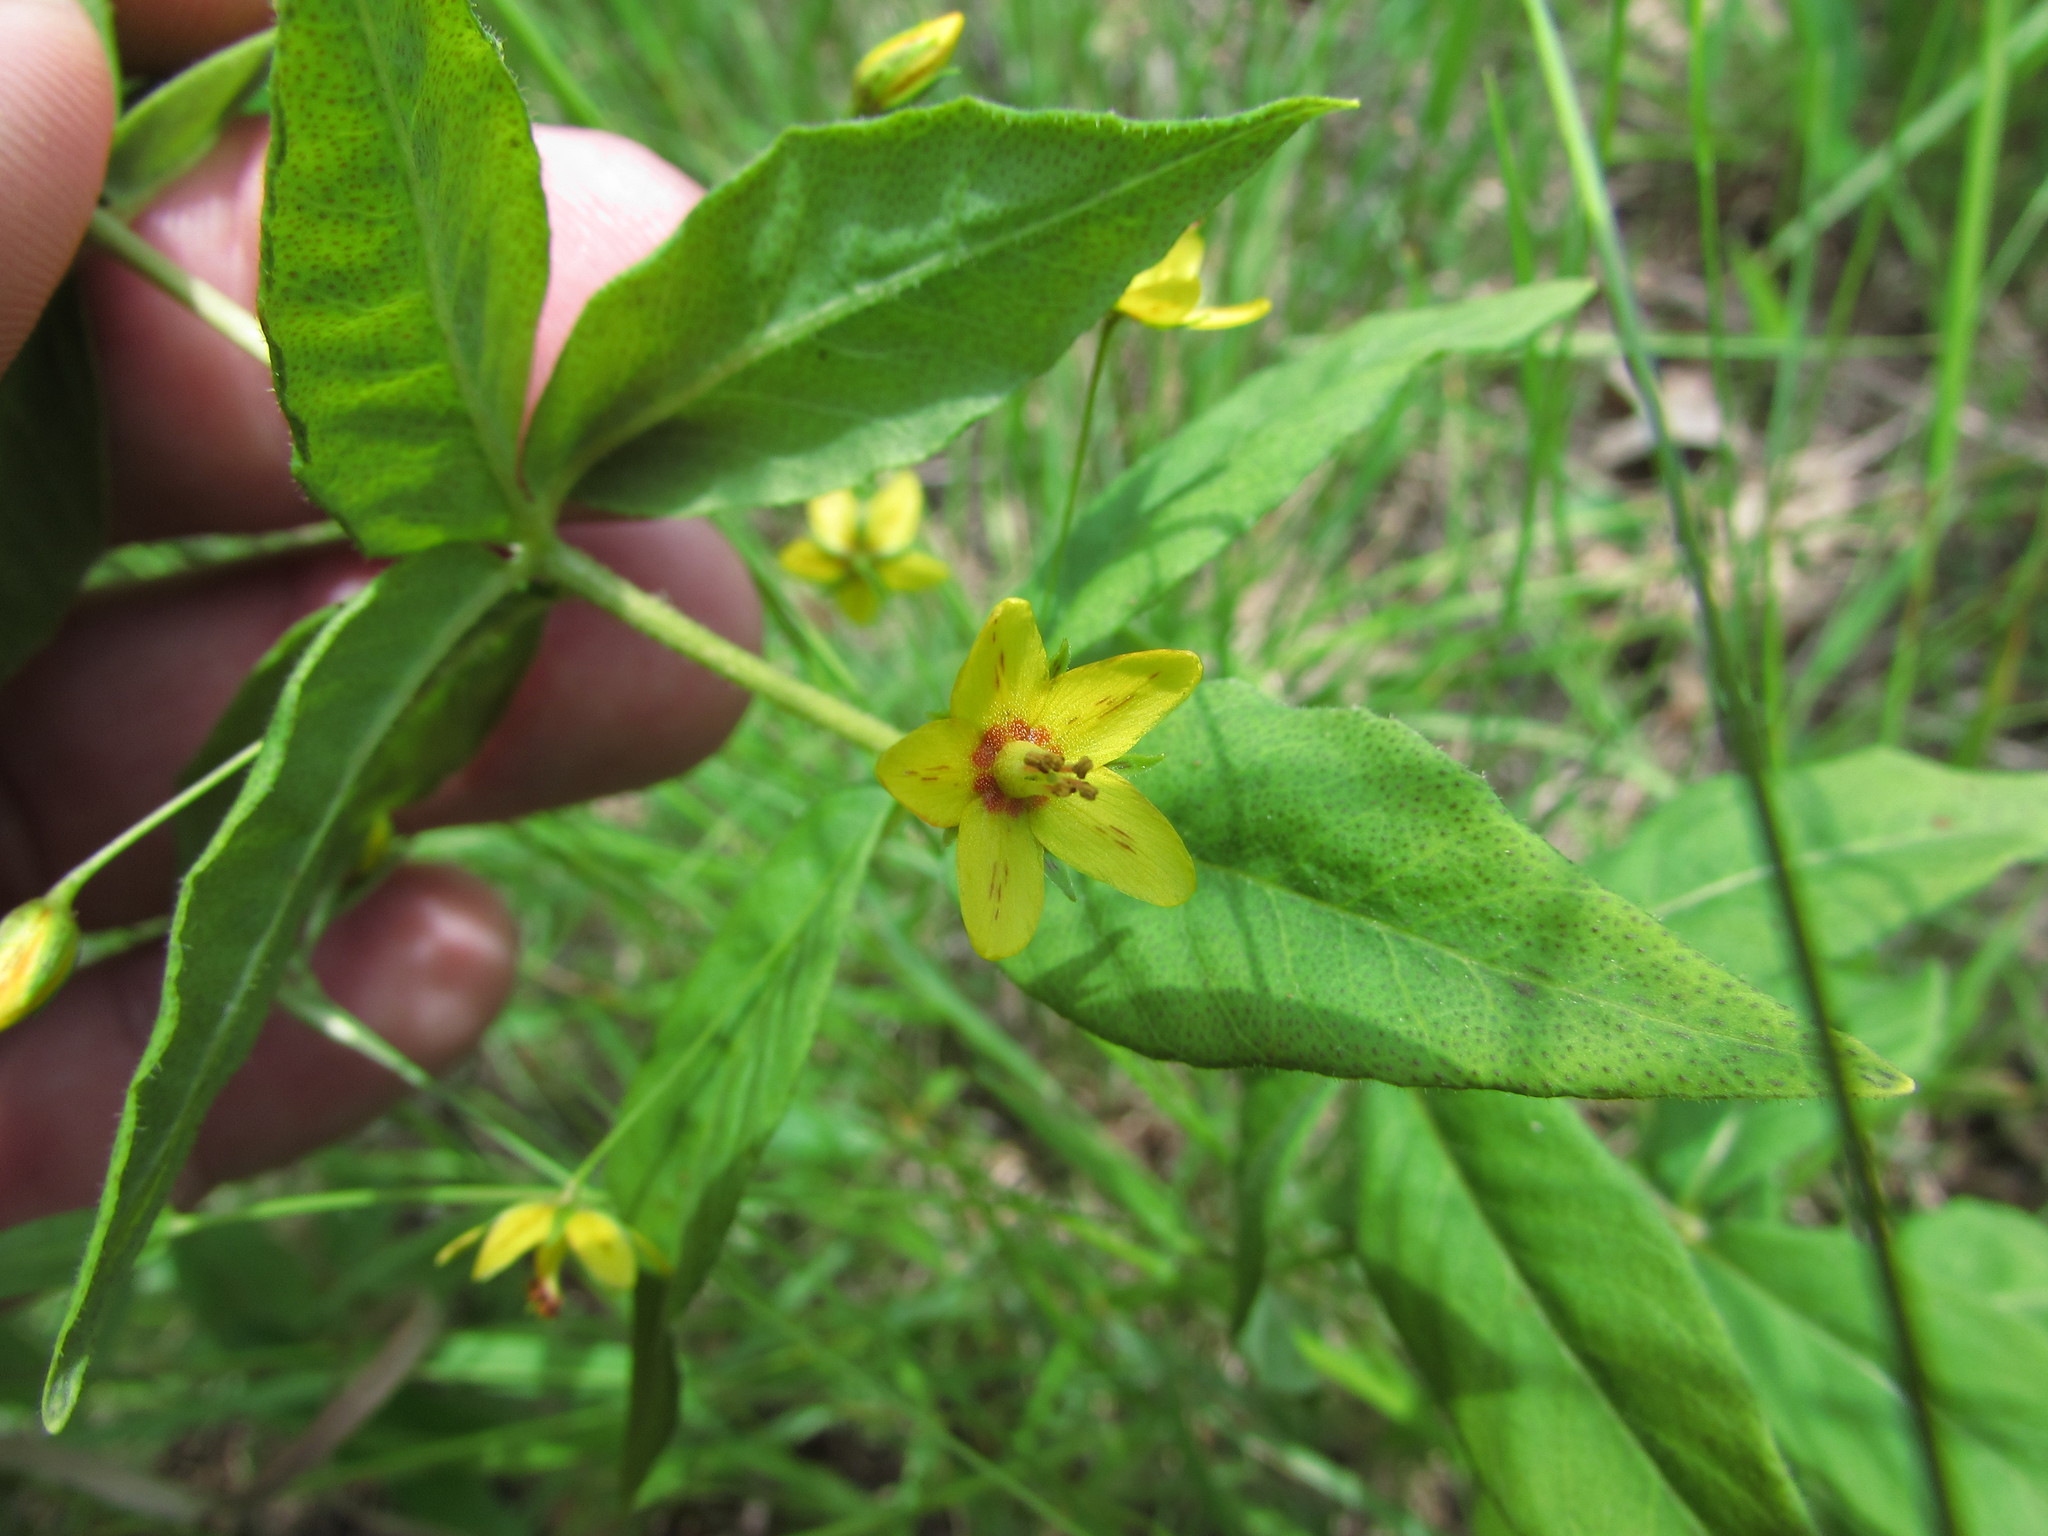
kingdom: Plantae
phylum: Tracheophyta
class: Magnoliopsida
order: Ericales
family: Primulaceae
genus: Lysimachia
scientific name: Lysimachia quadrifolia
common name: Whorled loosestrife
